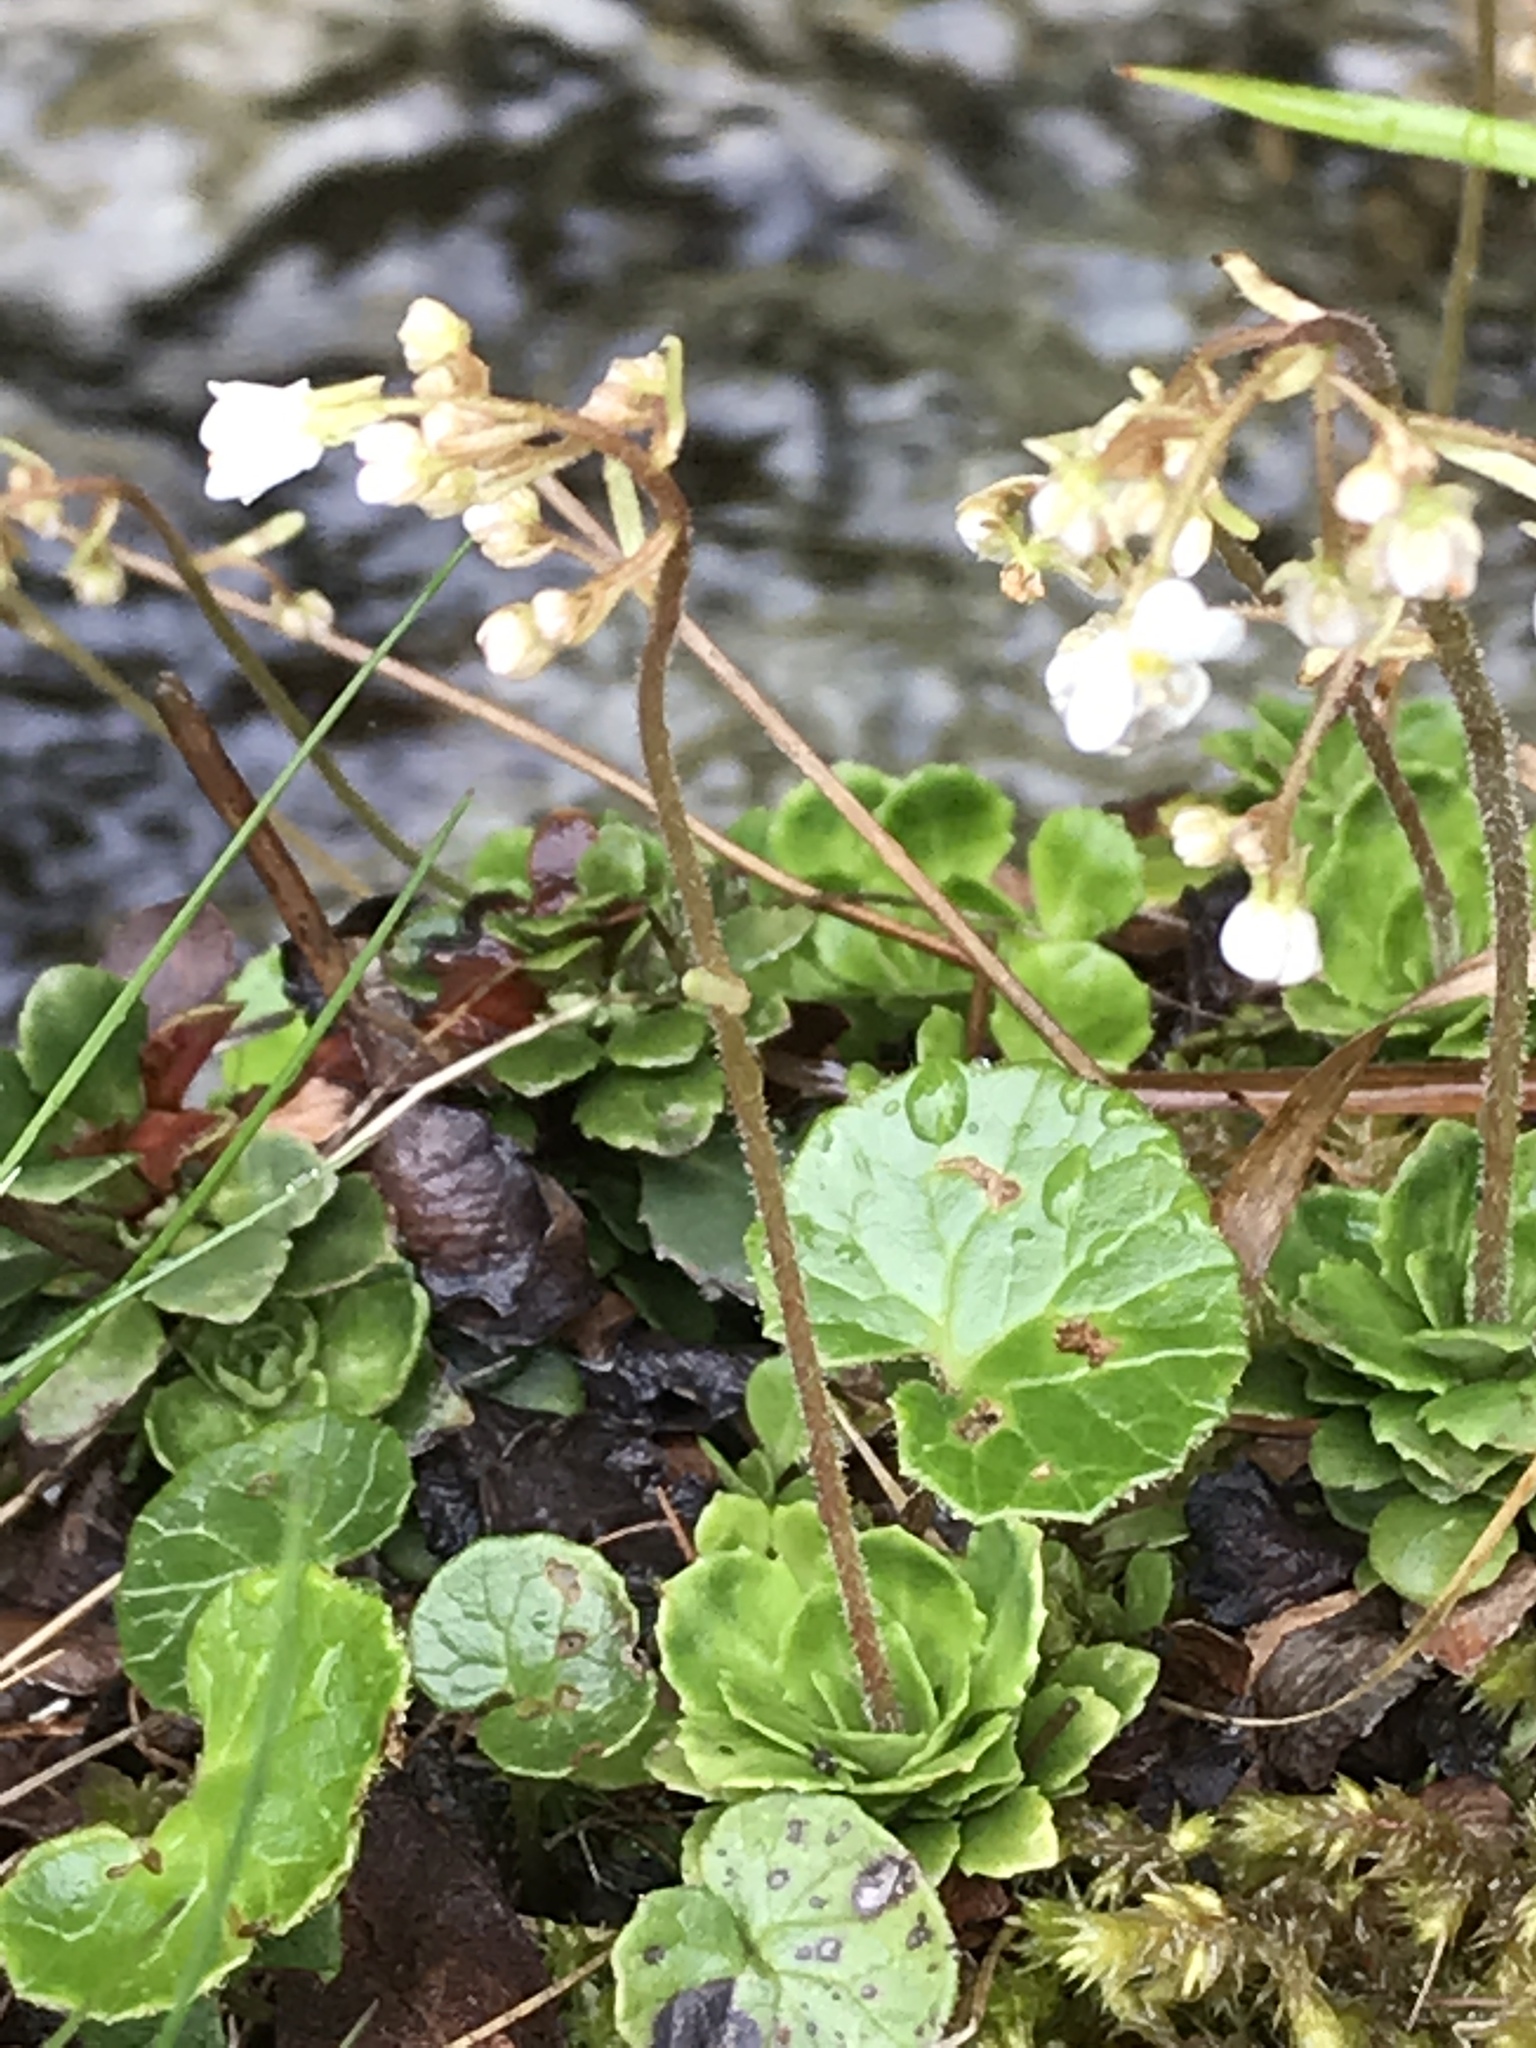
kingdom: Plantae
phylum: Tracheophyta
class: Magnoliopsida
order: Saxifragales
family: Saxifragaceae
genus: Saxifraga
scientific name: Saxifraga cuneifolia
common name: Lesser londonpride
